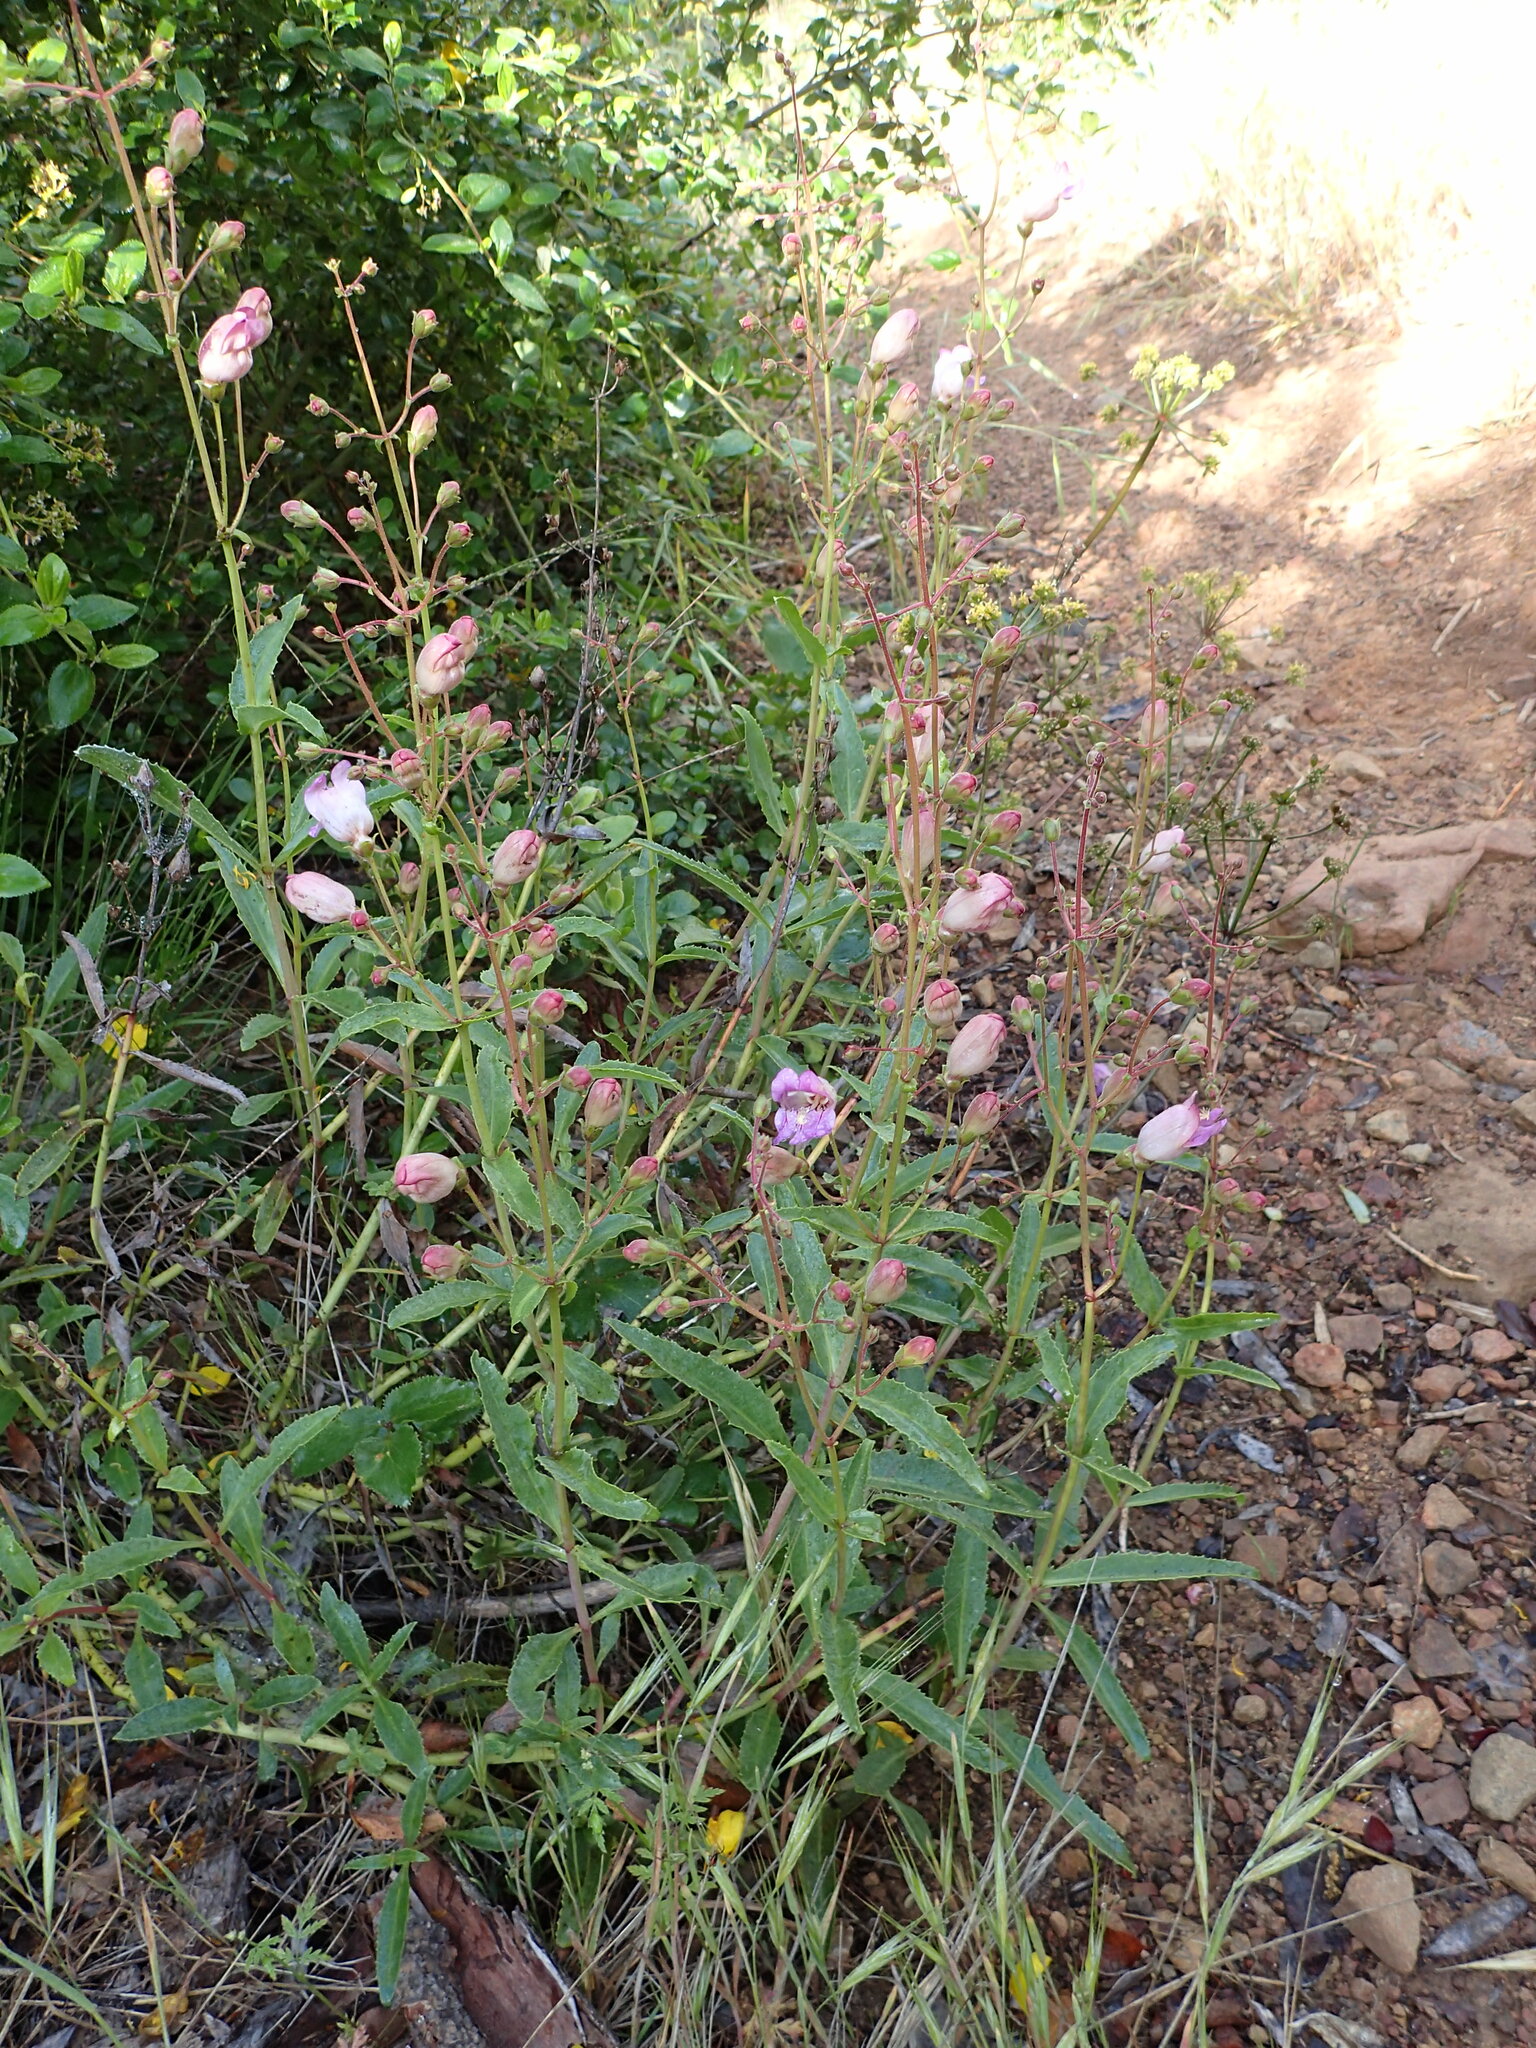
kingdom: Plantae
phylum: Tracheophyta
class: Magnoliopsida
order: Lamiales
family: Plantaginaceae
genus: Penstemon
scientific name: Penstemon grinnellii
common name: Grinnell's beardtongue
